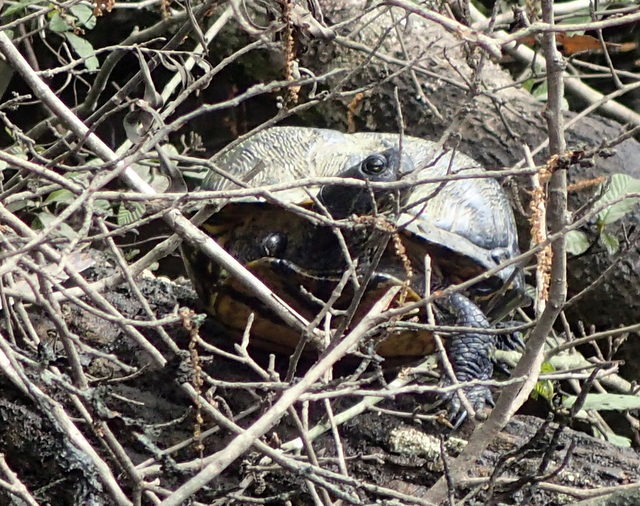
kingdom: Animalia
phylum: Chordata
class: Testudines
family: Emydidae
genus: Trachemys
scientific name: Trachemys scripta
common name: Slider
